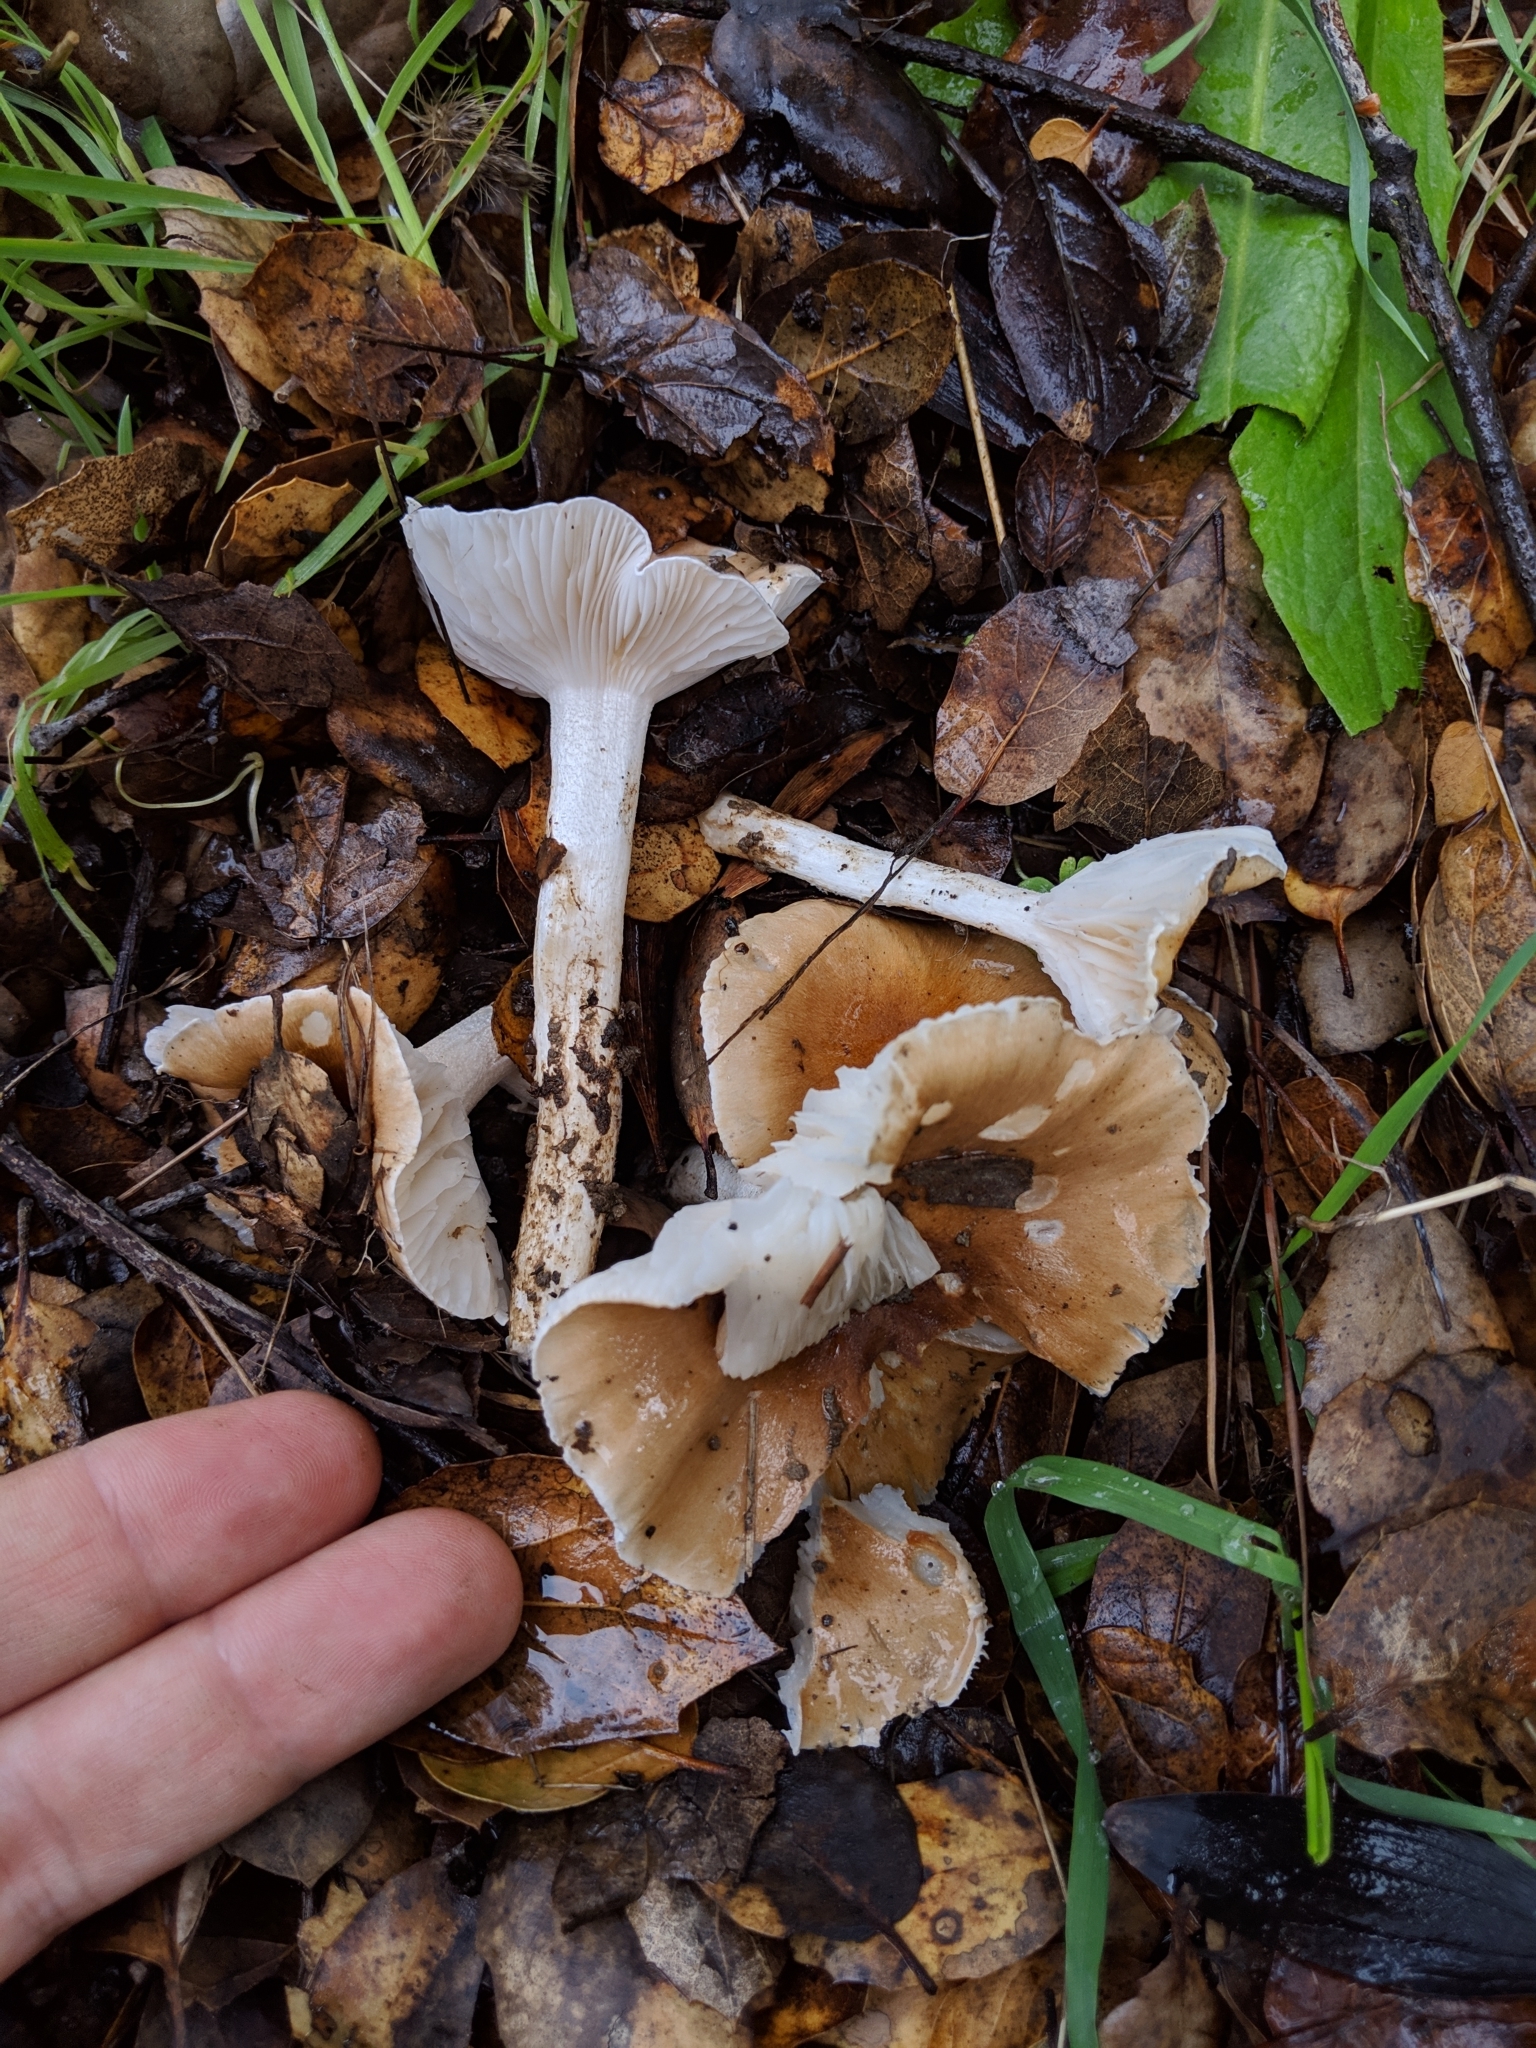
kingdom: Fungi
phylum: Basidiomycota
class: Agaricomycetes
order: Agaricales
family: Hygrophoraceae
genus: Hygrophorus
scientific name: Hygrophorus roseobrunneus
